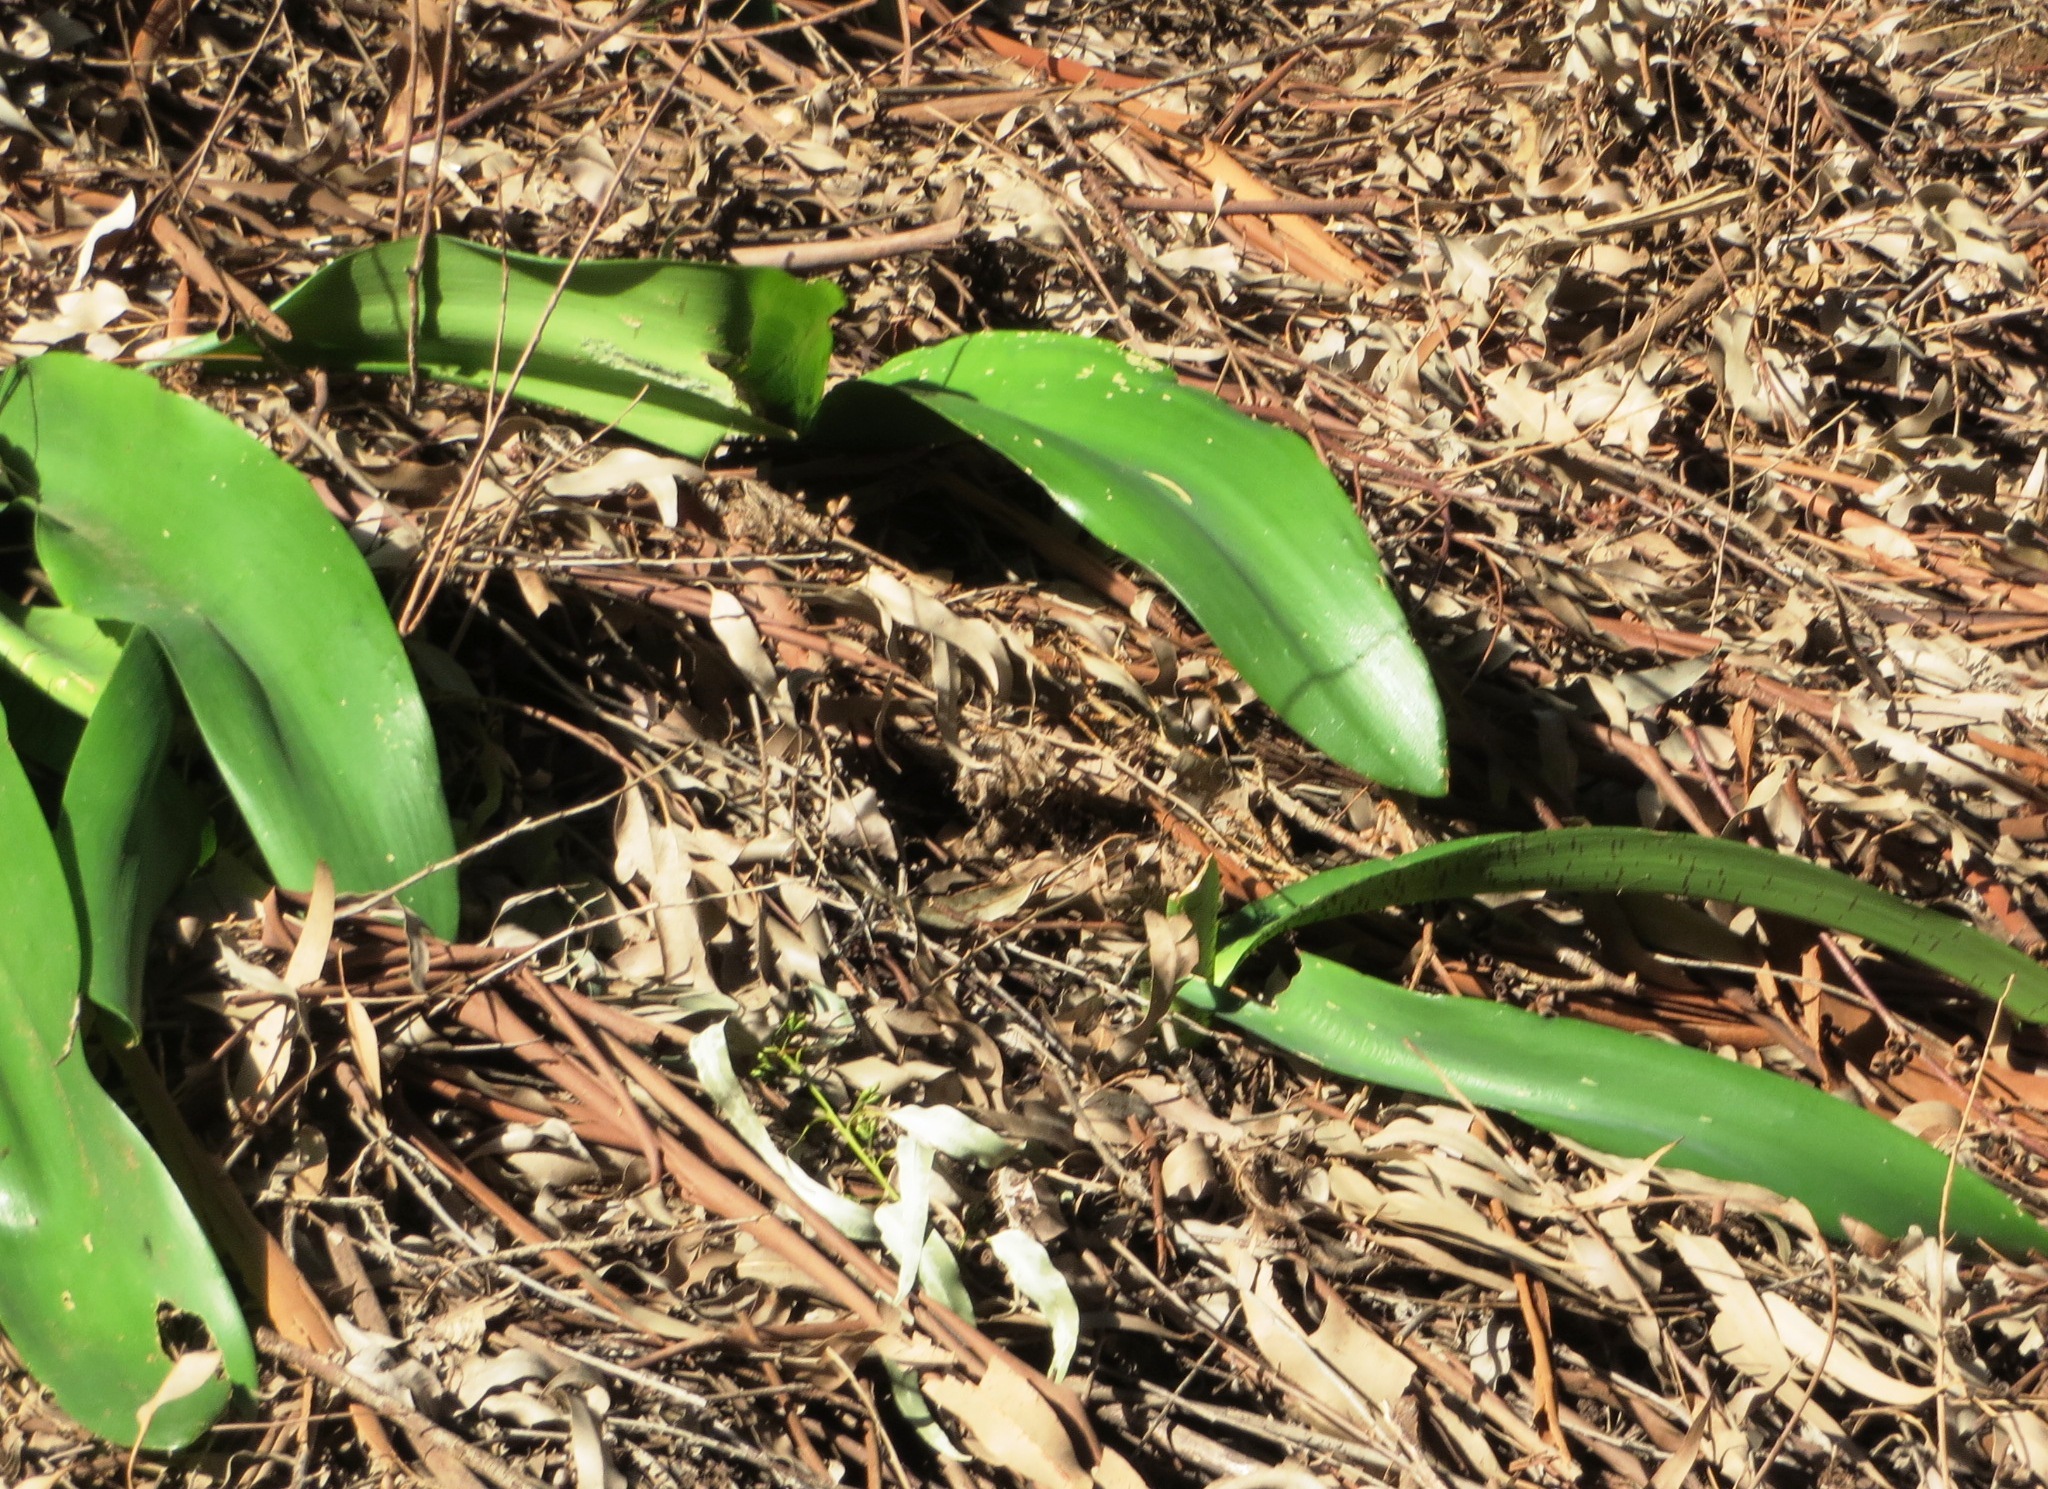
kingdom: Plantae
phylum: Tracheophyta
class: Liliopsida
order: Asparagales
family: Amaryllidaceae
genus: Haemanthus
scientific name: Haemanthus coccineus
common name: Cape-tulip
